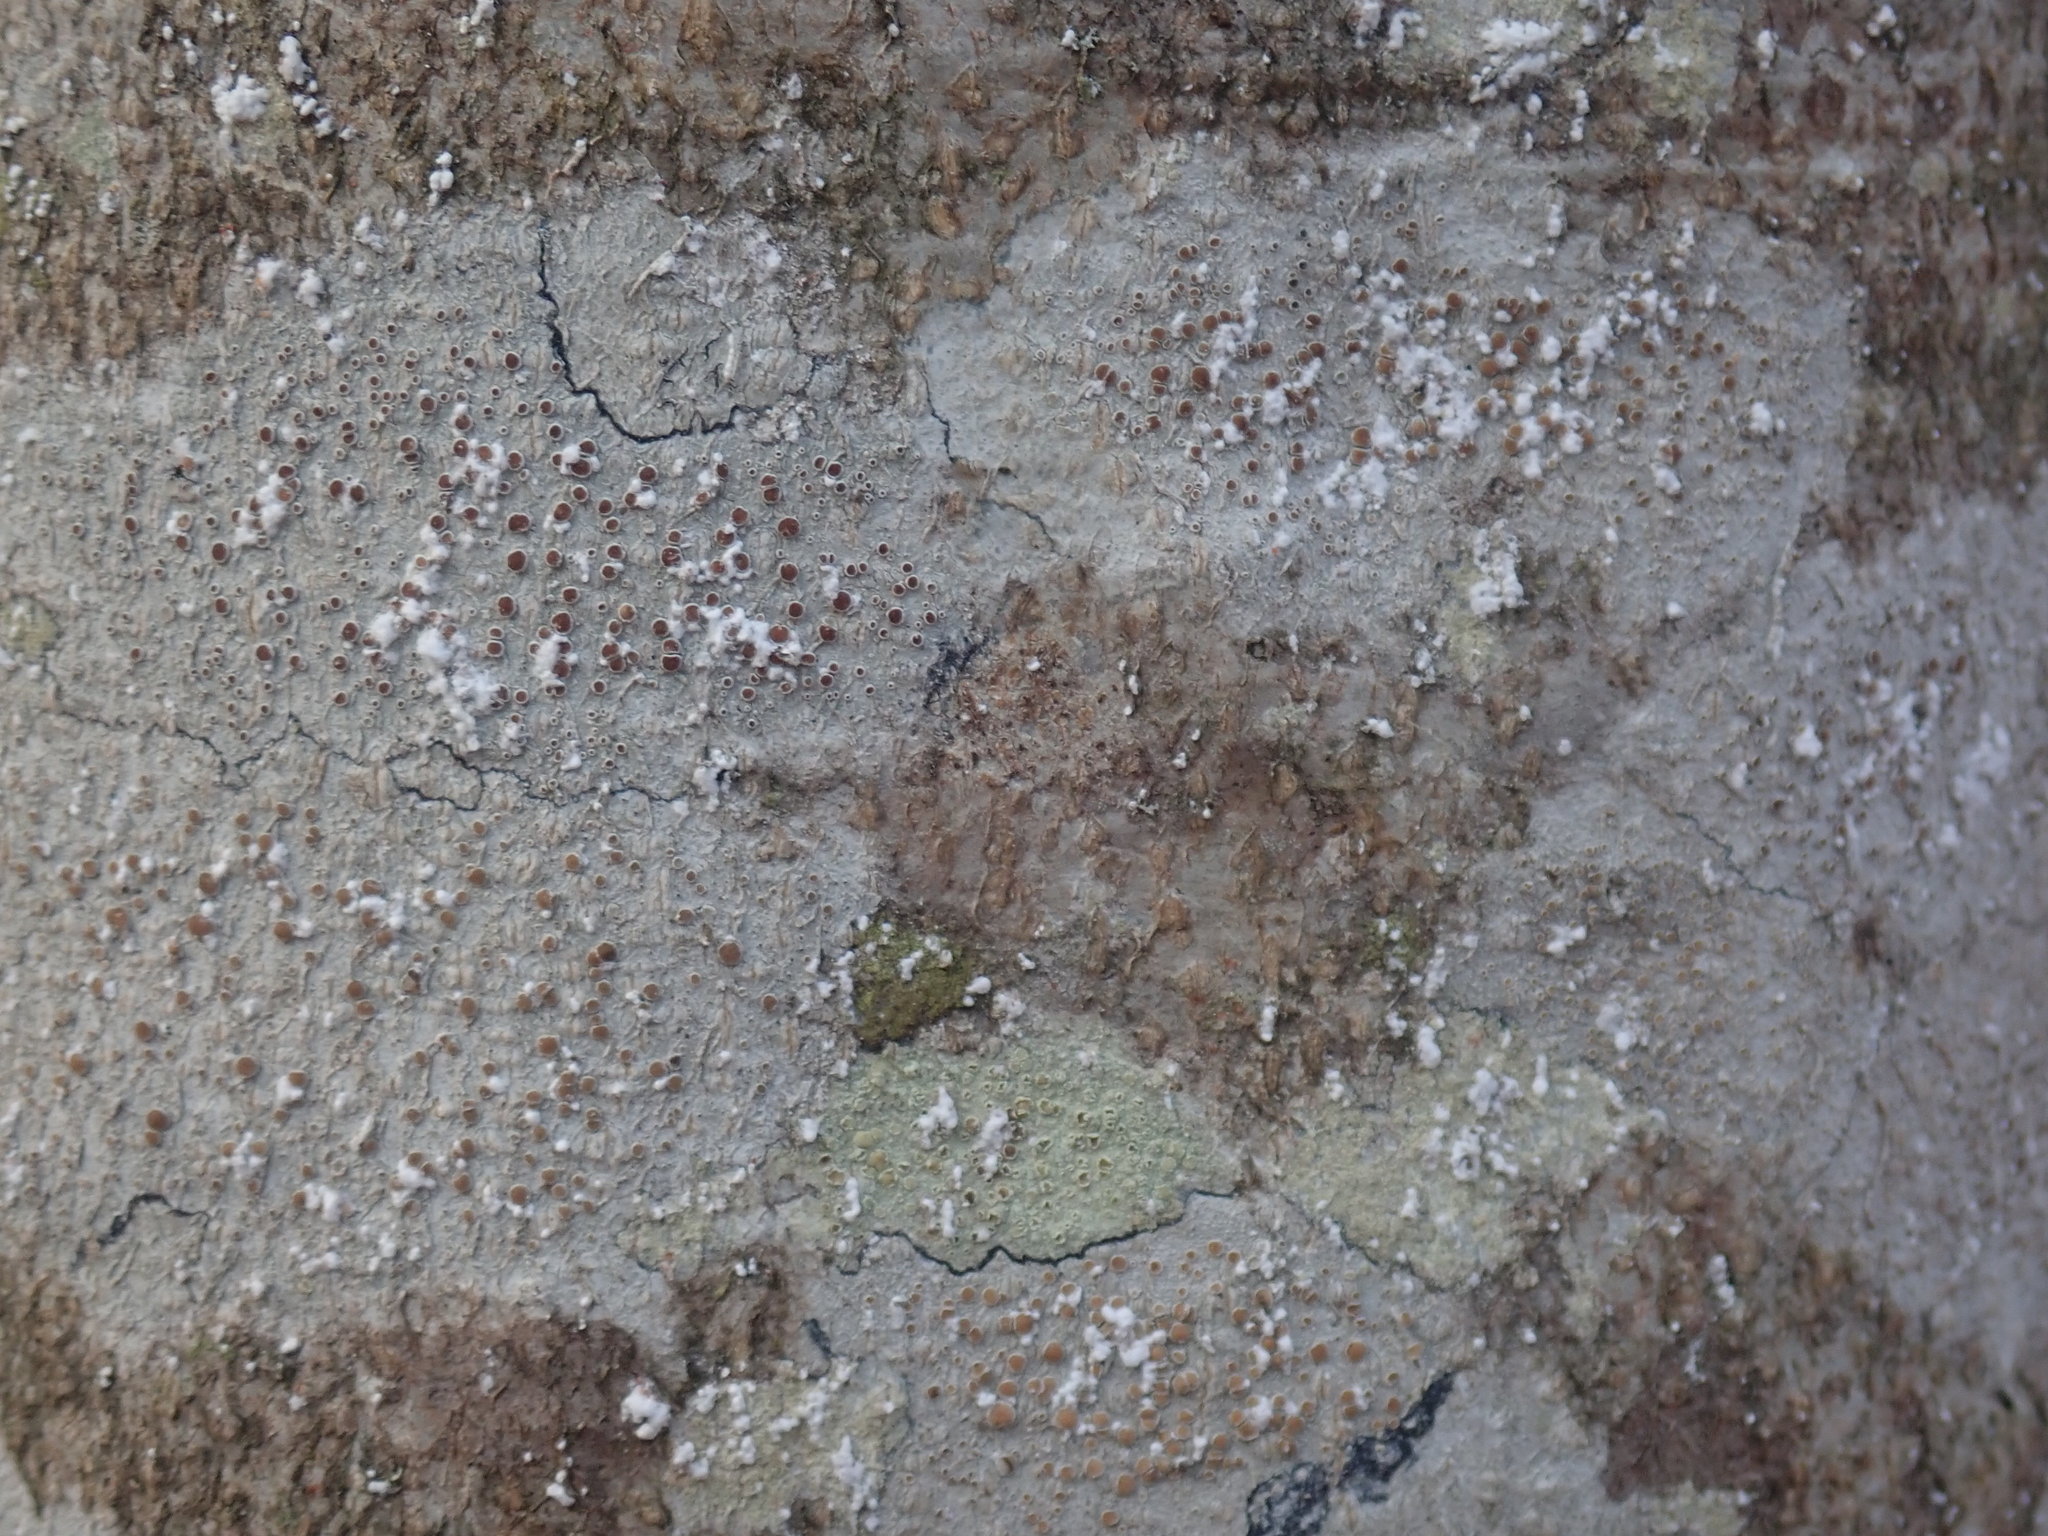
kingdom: Animalia
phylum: Arthropoda
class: Insecta
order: Hemiptera
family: Eriococcidae
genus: Cryptococcus
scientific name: Cryptococcus fagisuga
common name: Beech scale
